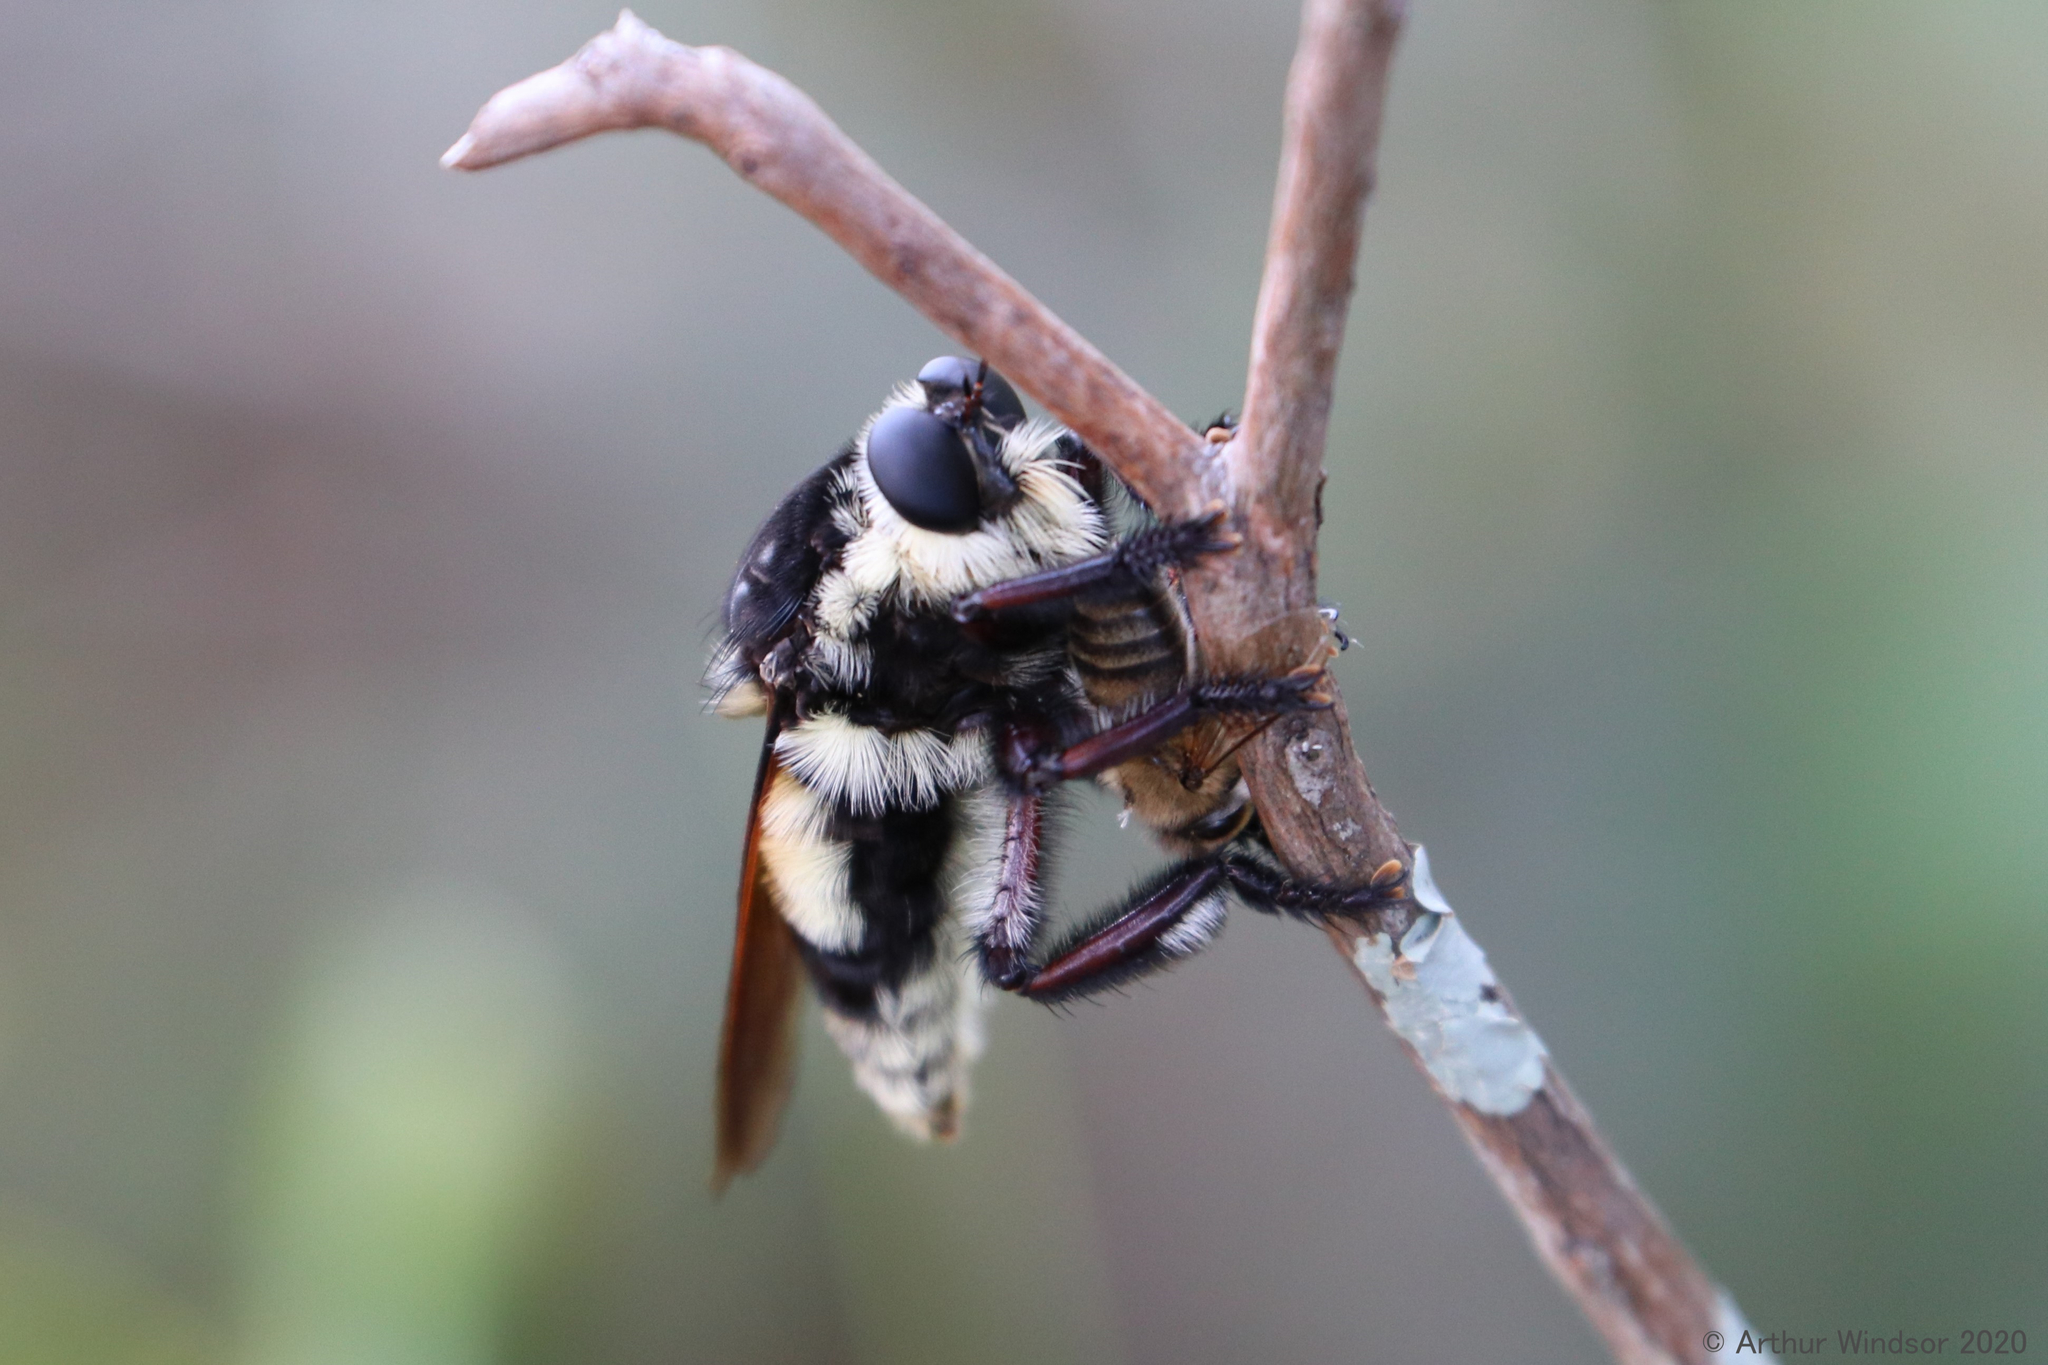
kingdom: Animalia
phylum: Arthropoda
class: Insecta
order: Diptera
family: Asilidae
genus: Mallophora
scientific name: Mallophora bomboides
